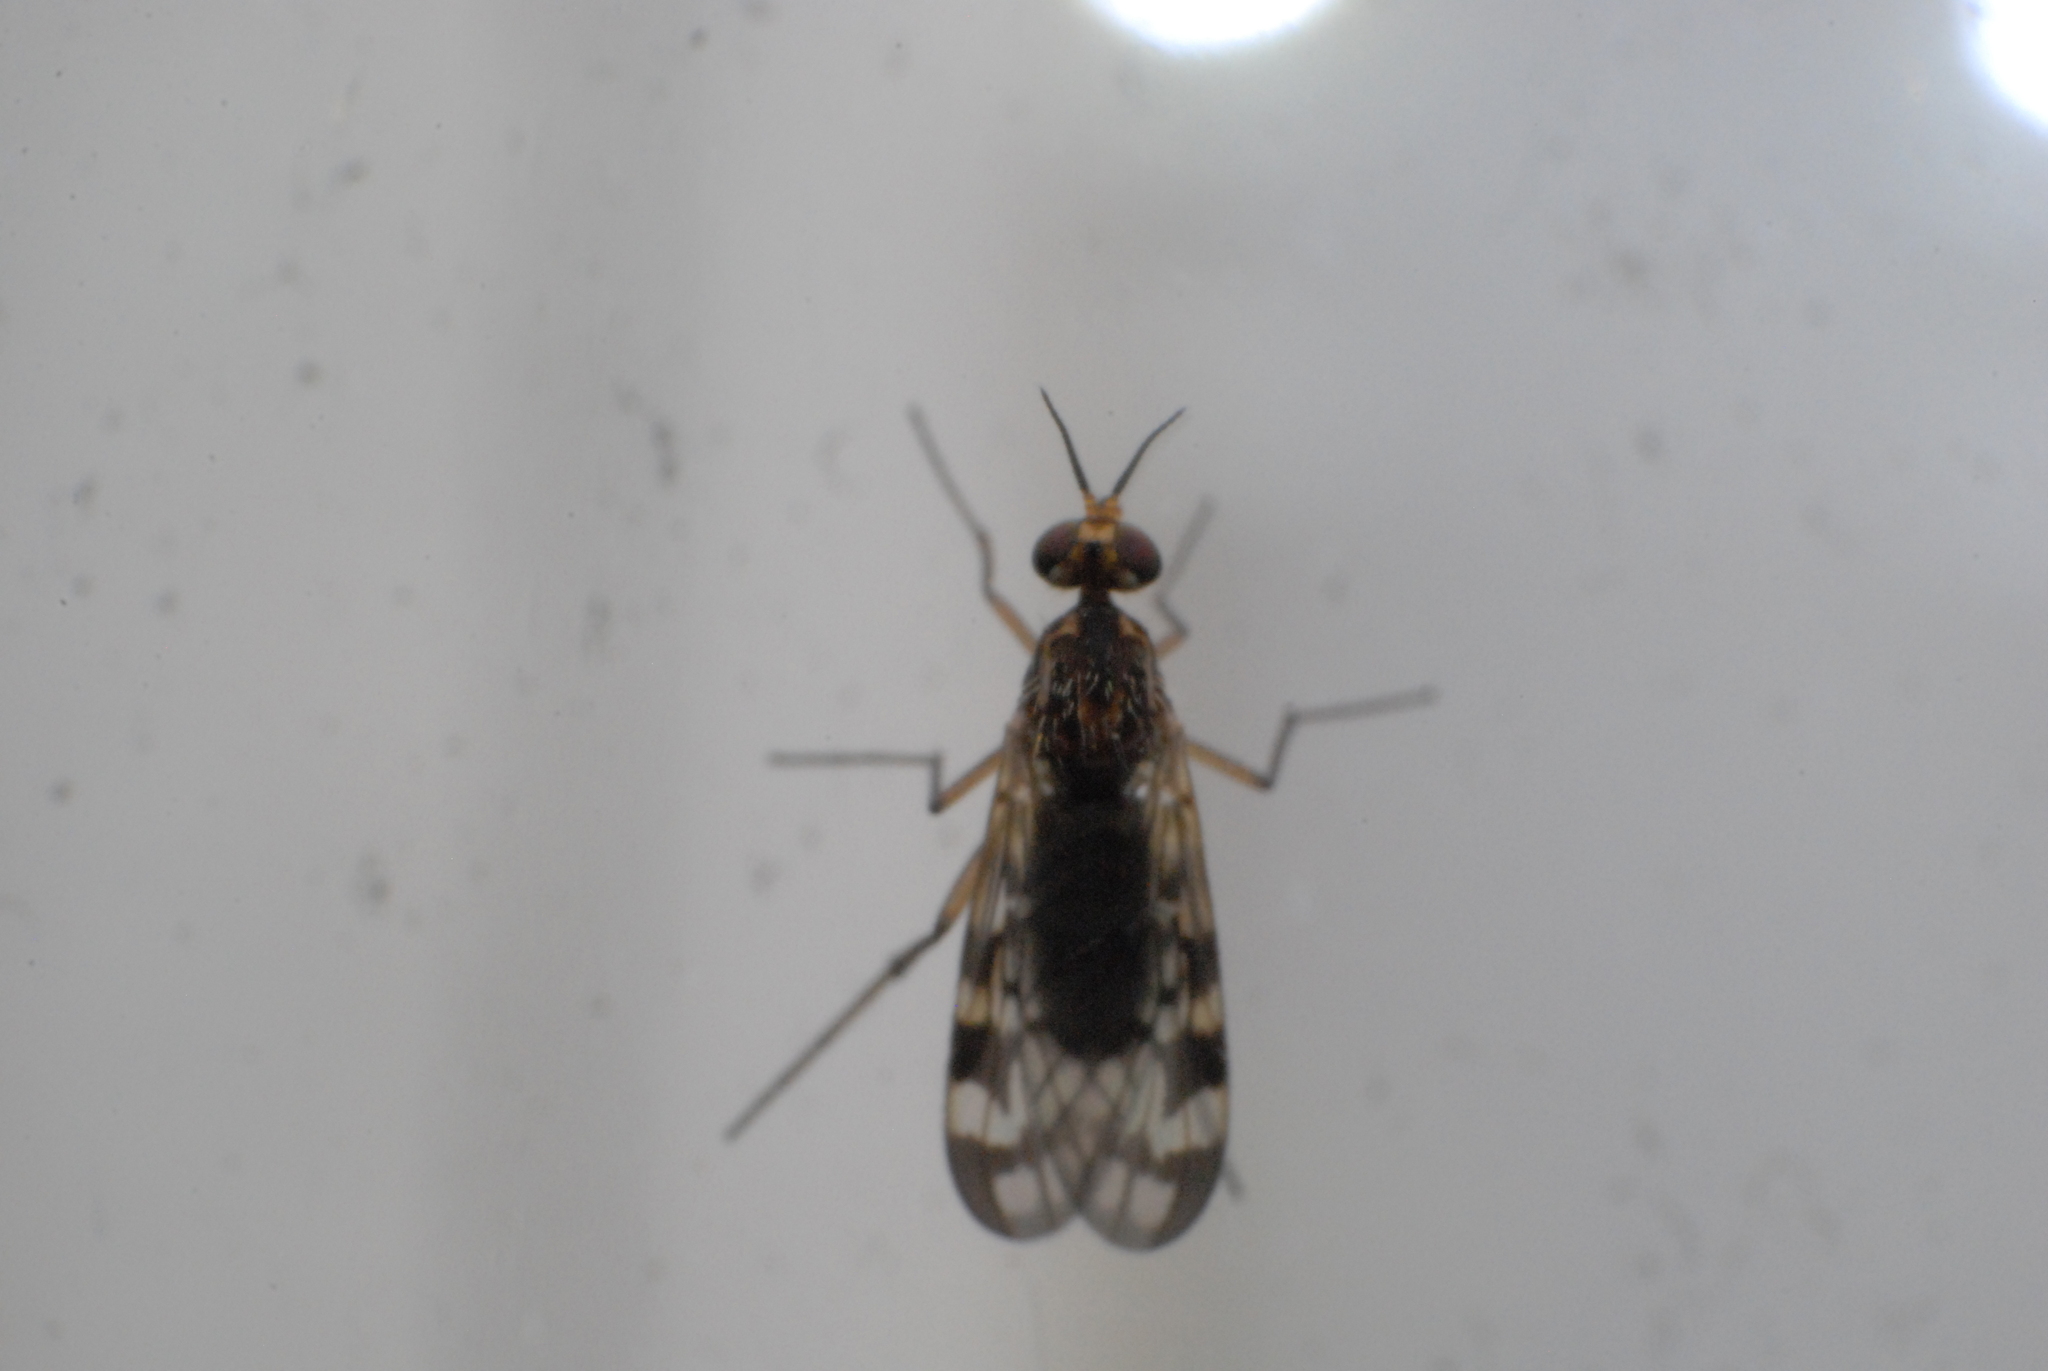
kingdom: Animalia
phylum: Arthropoda
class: Insecta
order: Diptera
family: Anisopodidae
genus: Sylvicola
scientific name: Sylvicola dubius
